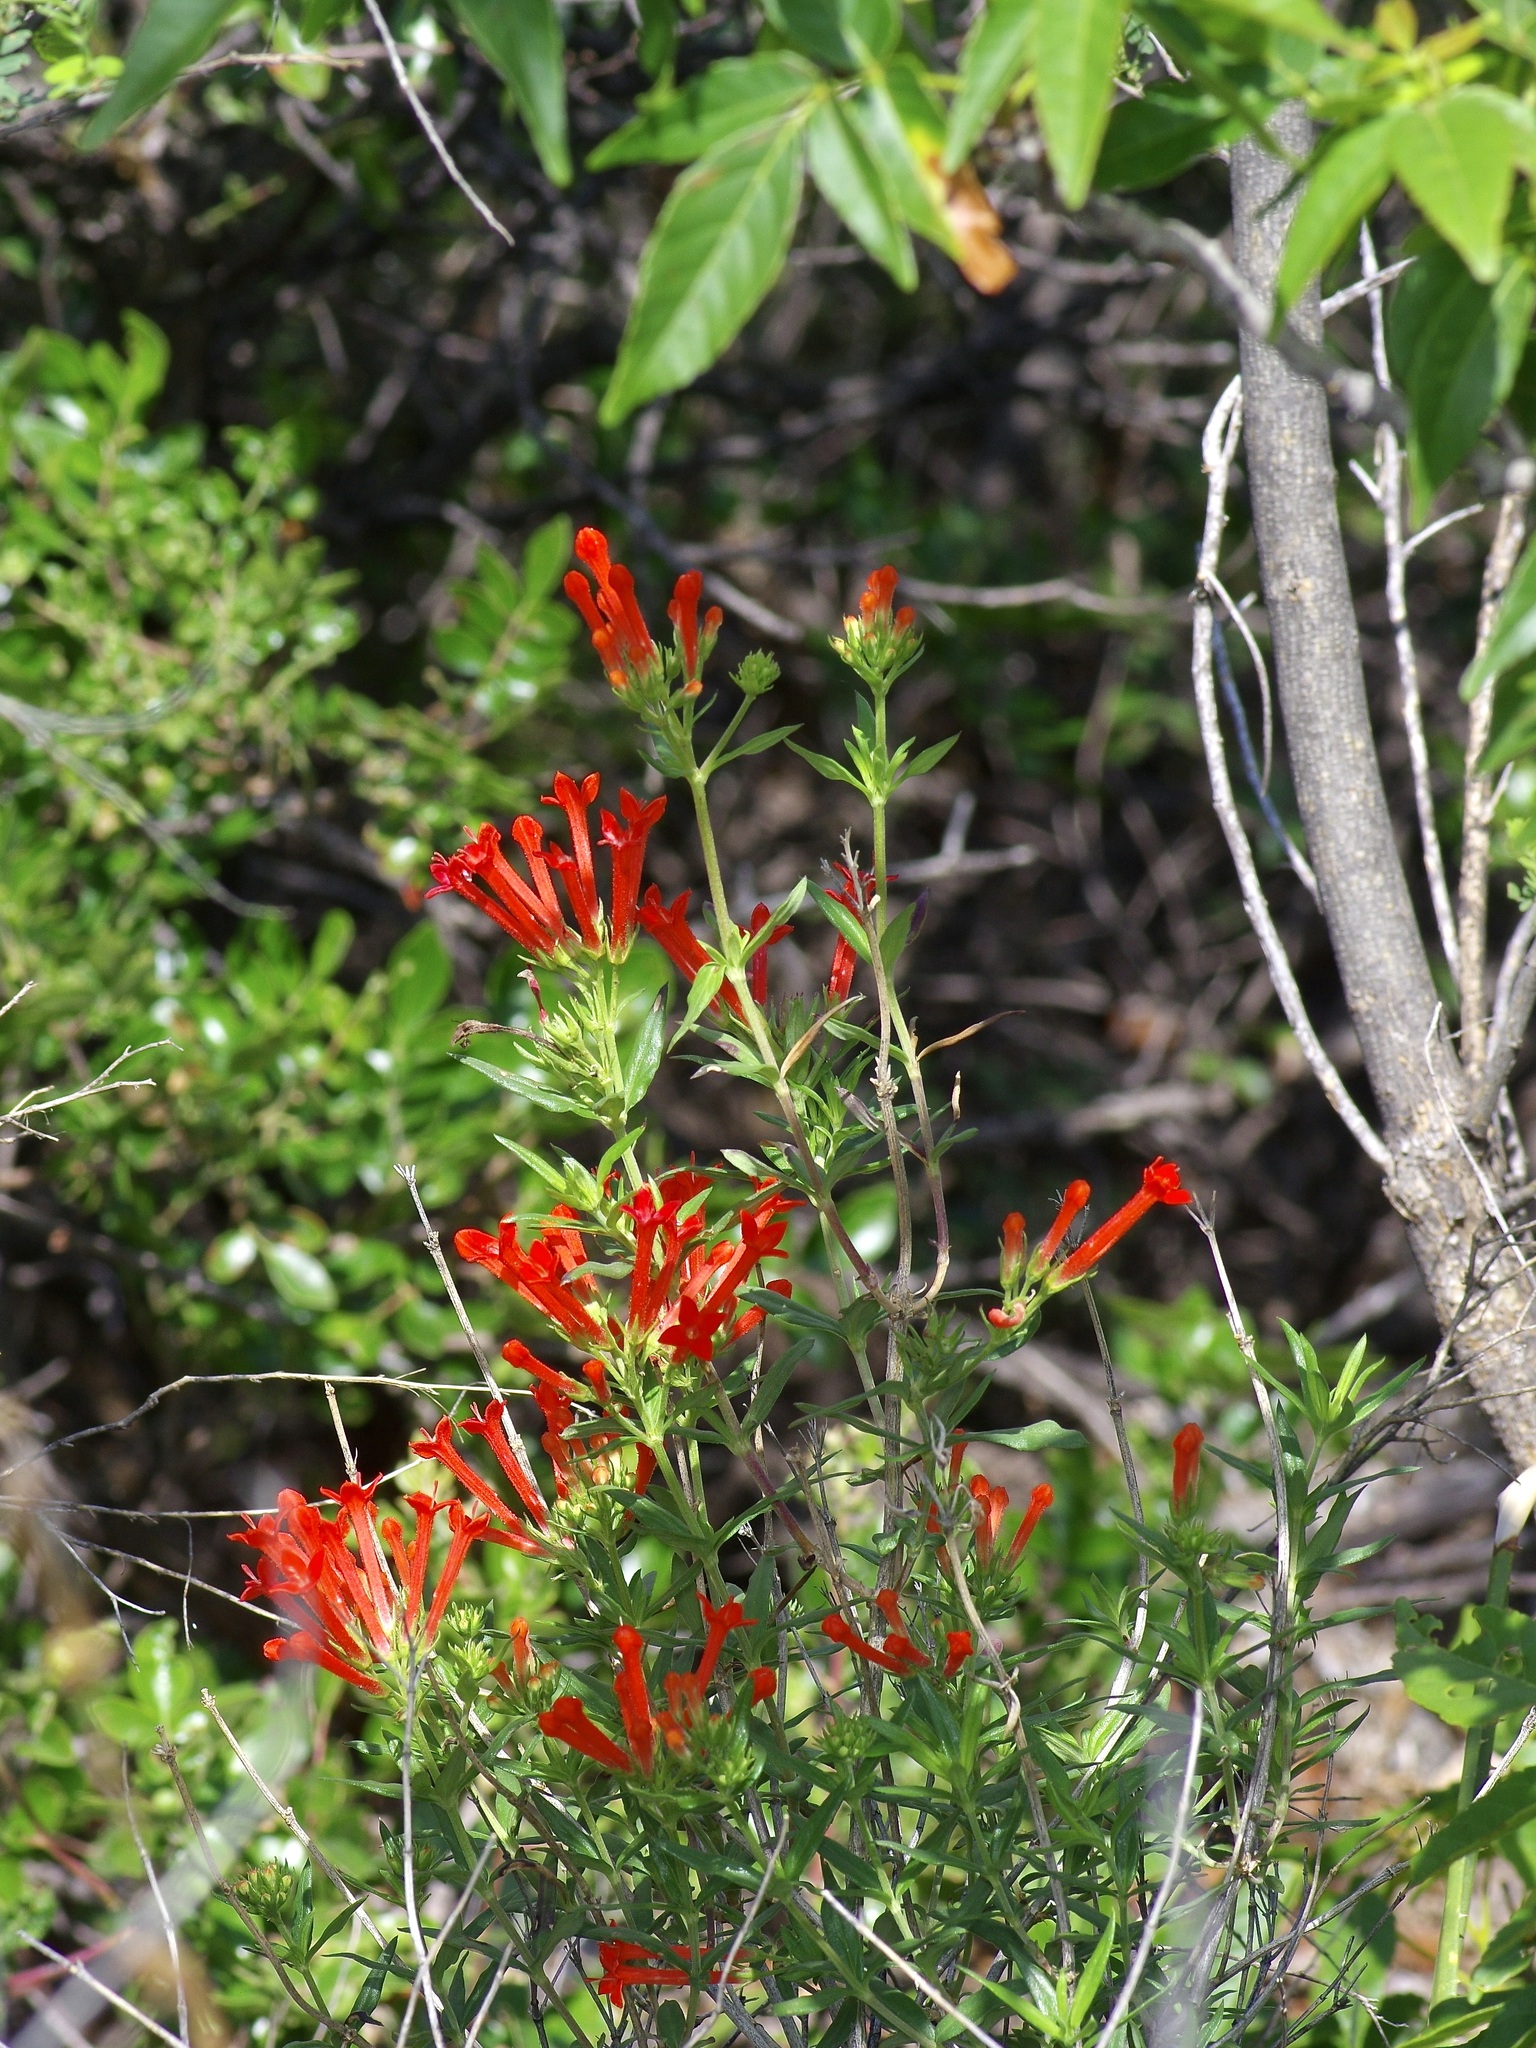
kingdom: Plantae
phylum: Tracheophyta
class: Magnoliopsida
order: Gentianales
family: Rubiaceae
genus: Bouvardia
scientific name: Bouvardia ternifolia
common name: Scarlet bouvardia
